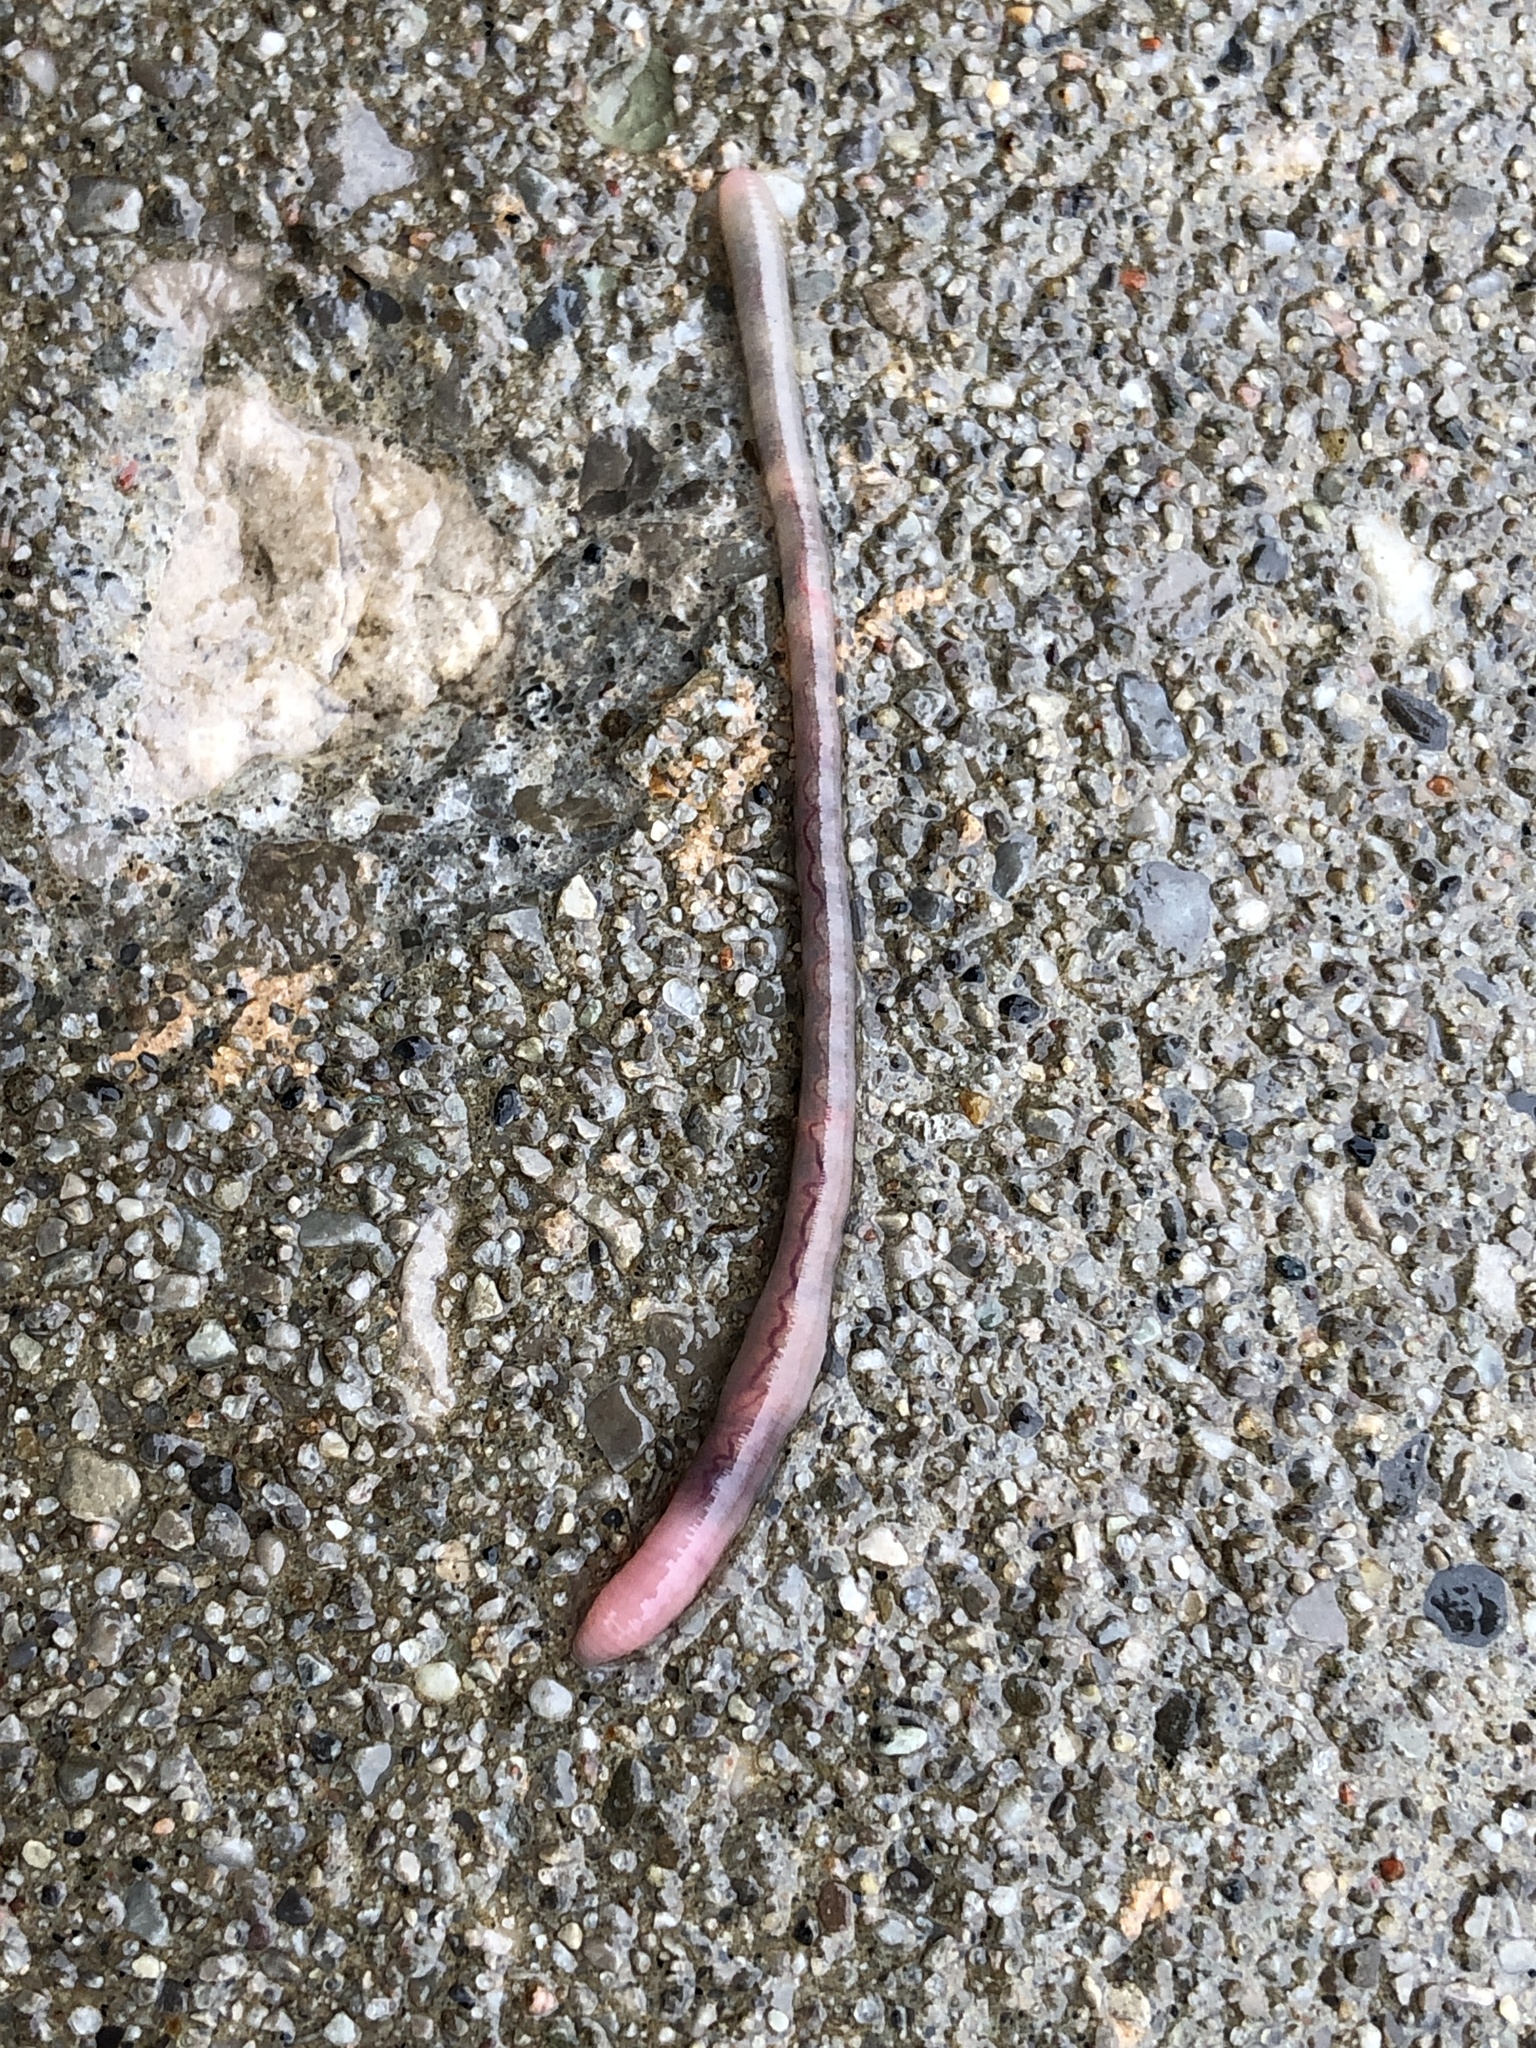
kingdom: Animalia
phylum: Annelida
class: Clitellata
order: Crassiclitellata
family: Lumbricidae
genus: Lumbricus
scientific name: Lumbricus terrestris
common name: Common earthworm
